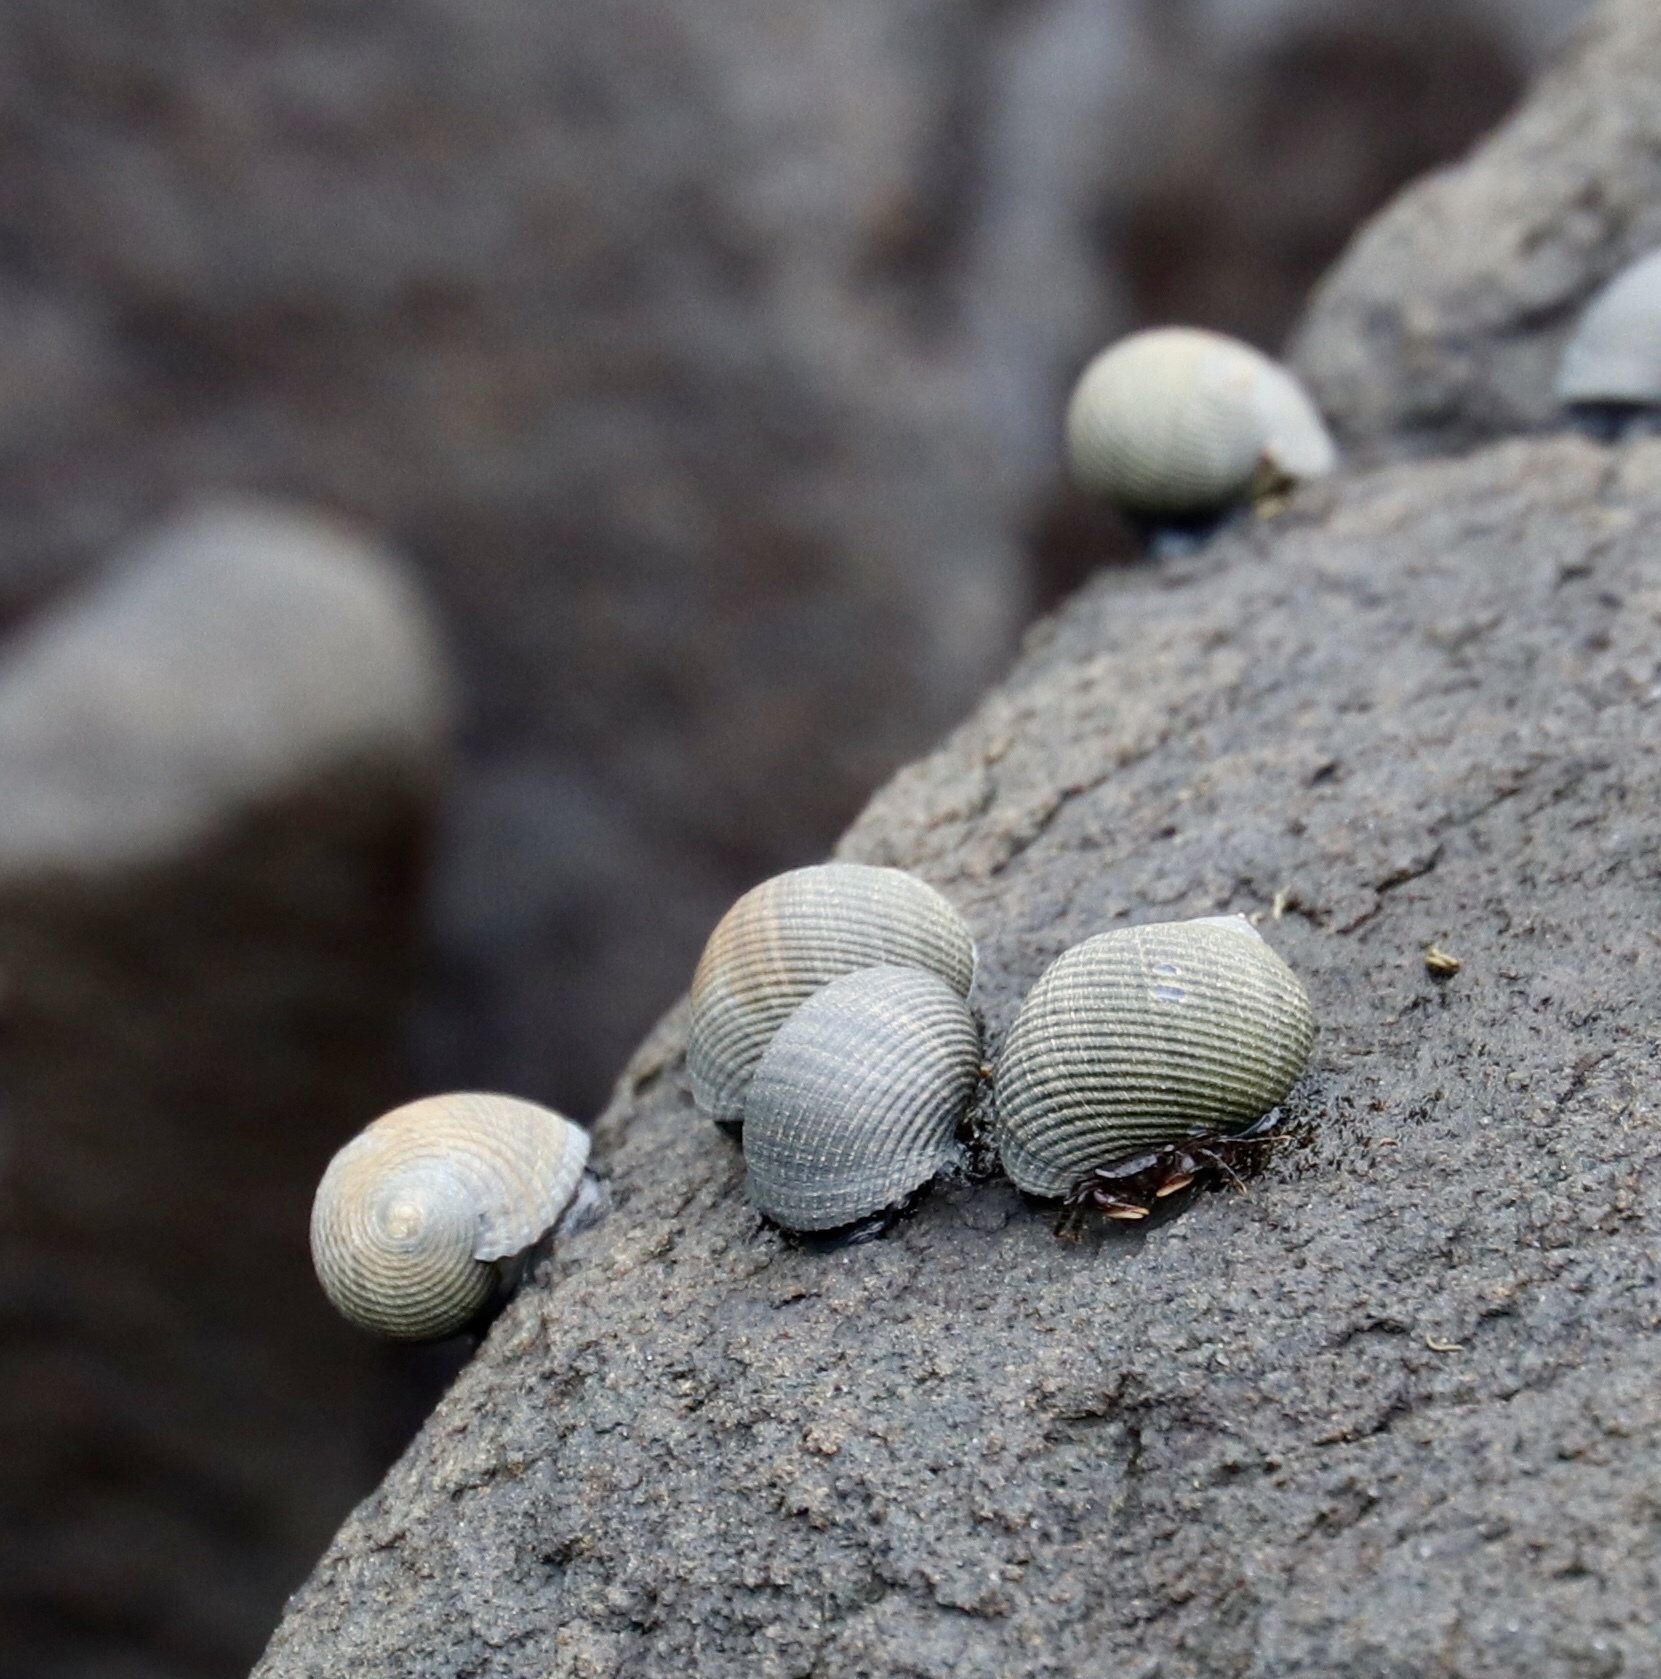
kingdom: Animalia
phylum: Mollusca
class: Gastropoda
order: Cycloneritida
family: Neritidae
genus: Nerita
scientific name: Nerita scabricosta
